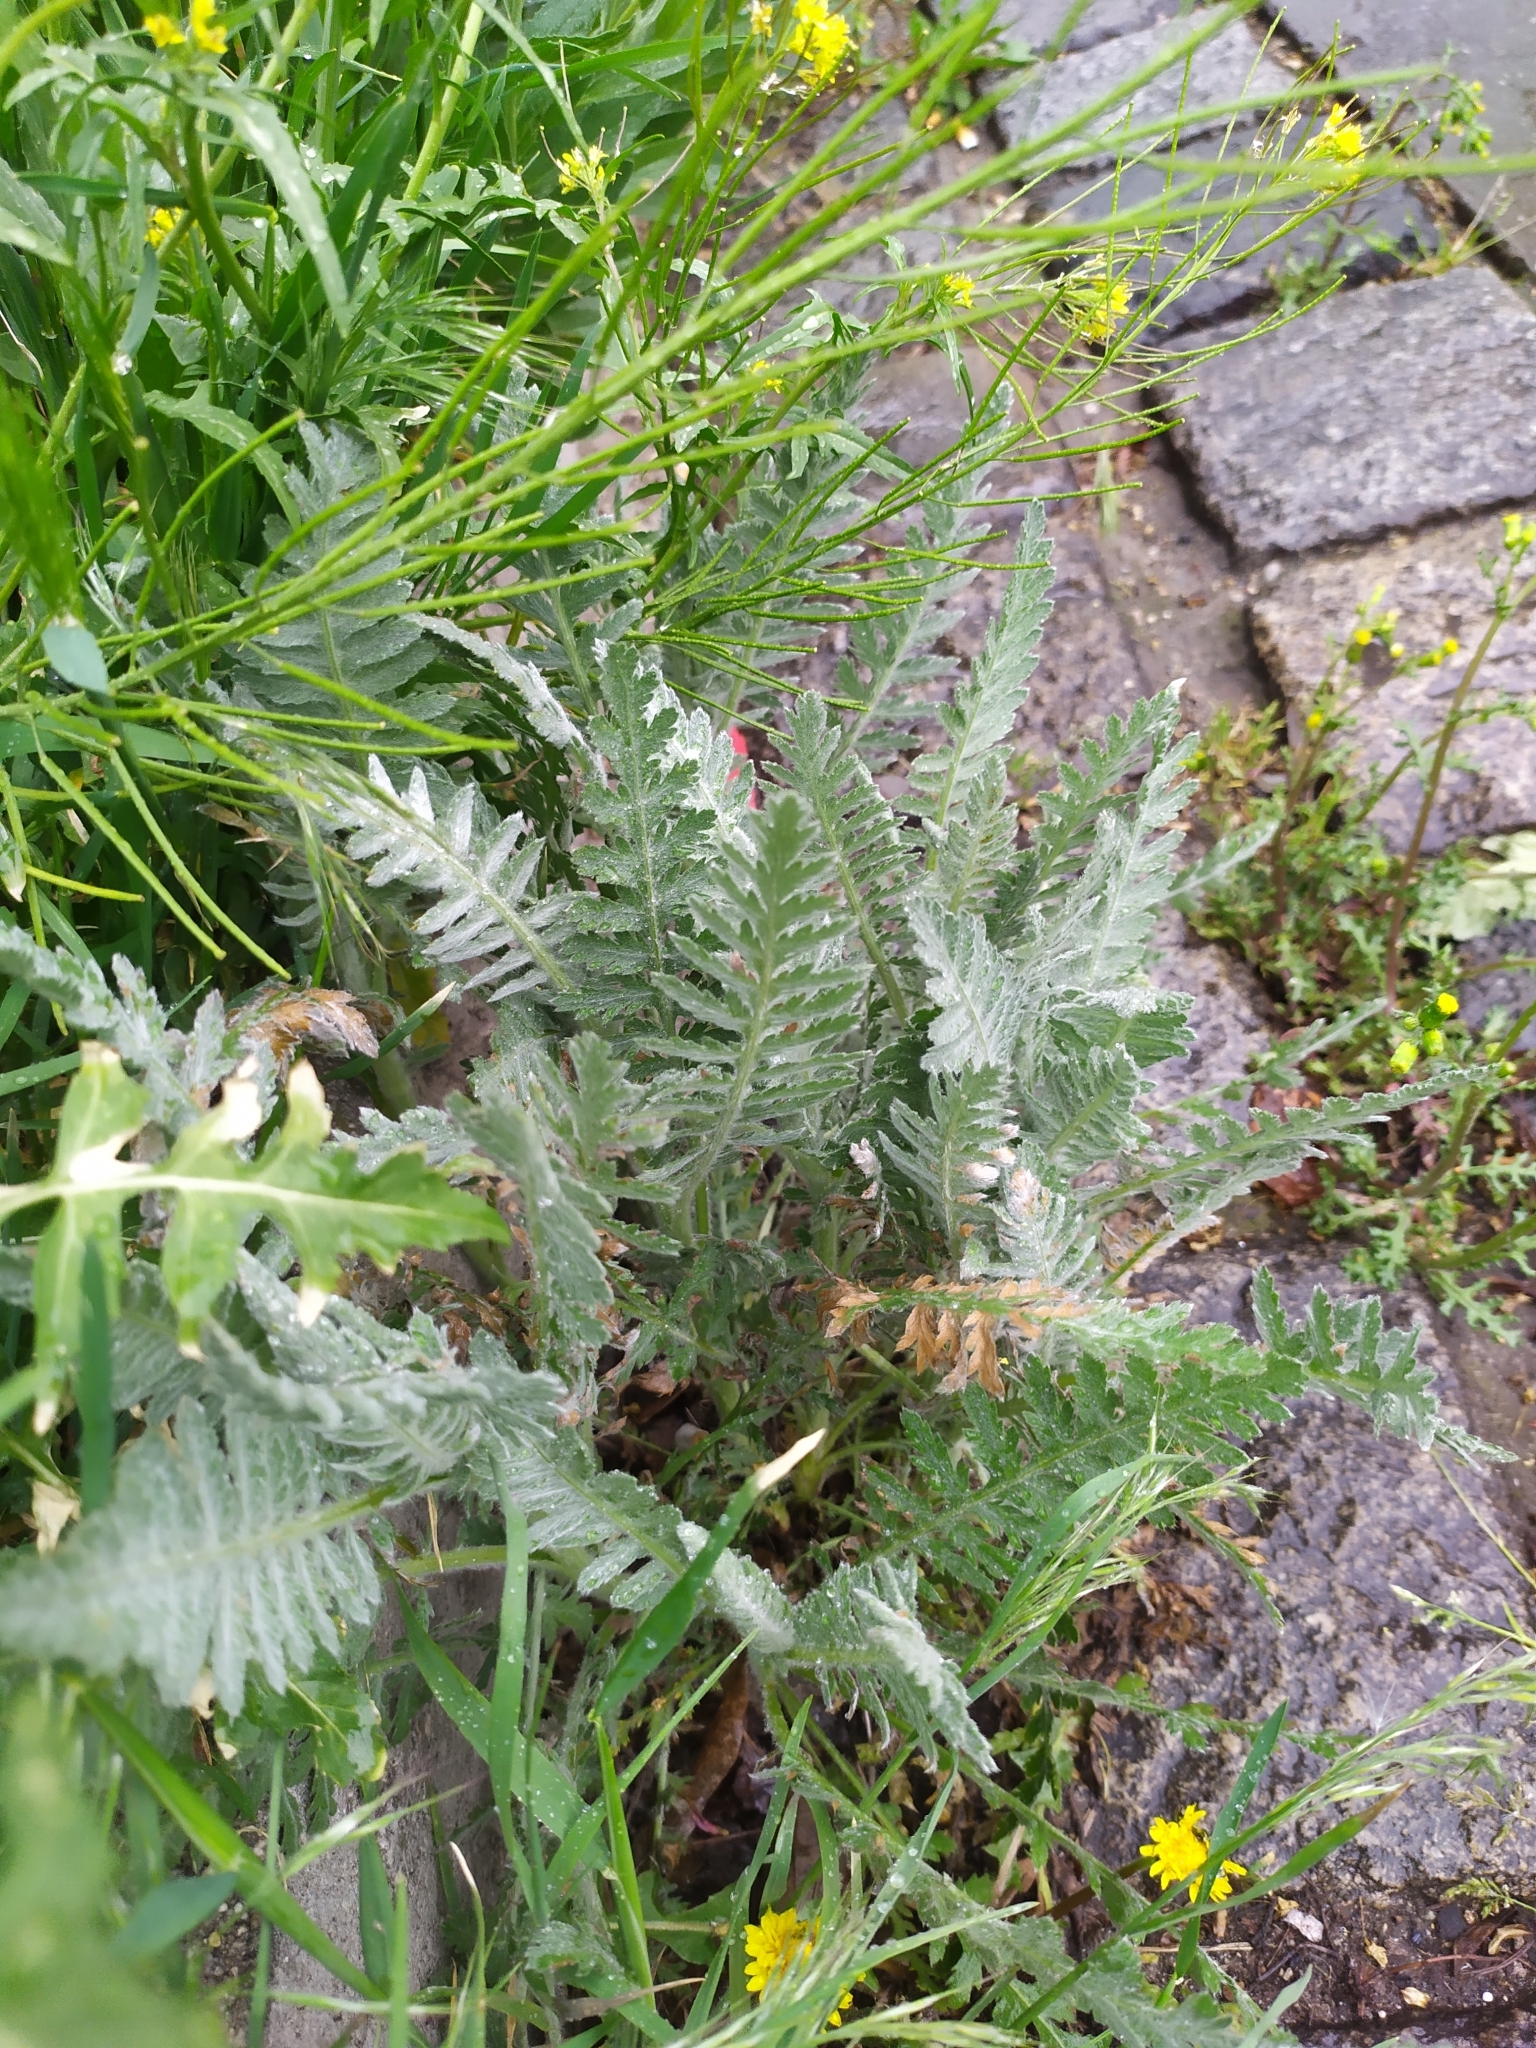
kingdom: Plantae
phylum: Tracheophyta
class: Magnoliopsida
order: Asterales
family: Asteraceae
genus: Achillea
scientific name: Achillea filipendulina
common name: Fernleaf yarrow
